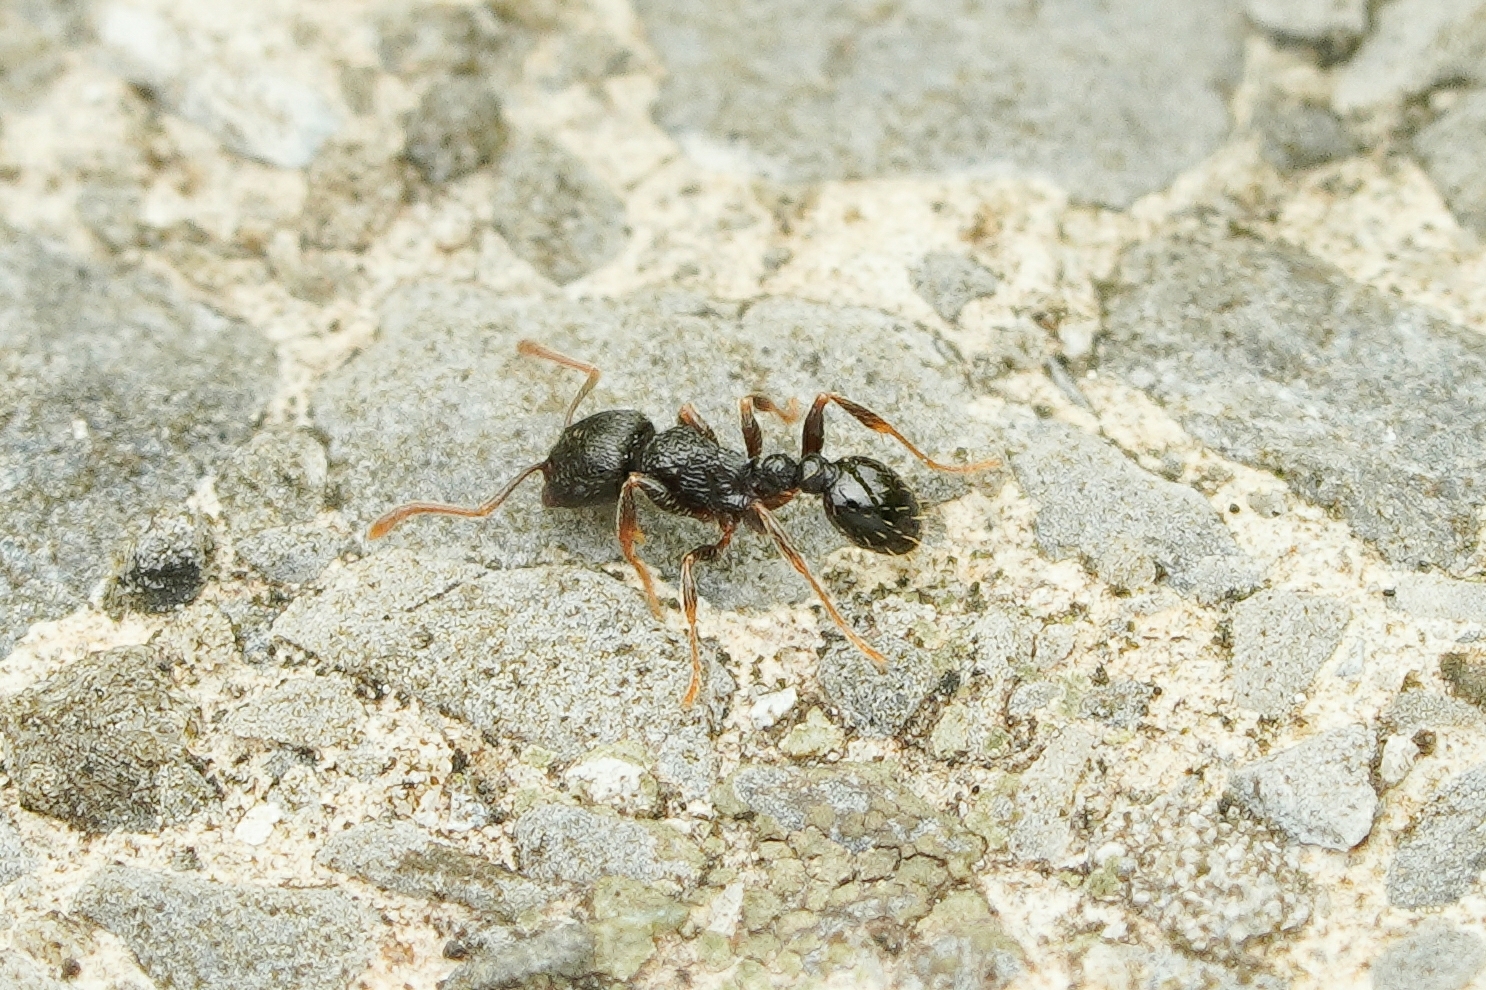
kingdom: Animalia
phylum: Arthropoda
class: Insecta
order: Hymenoptera
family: Formicidae
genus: Tetramorium
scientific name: Tetramorium tsushimae
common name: Ant
